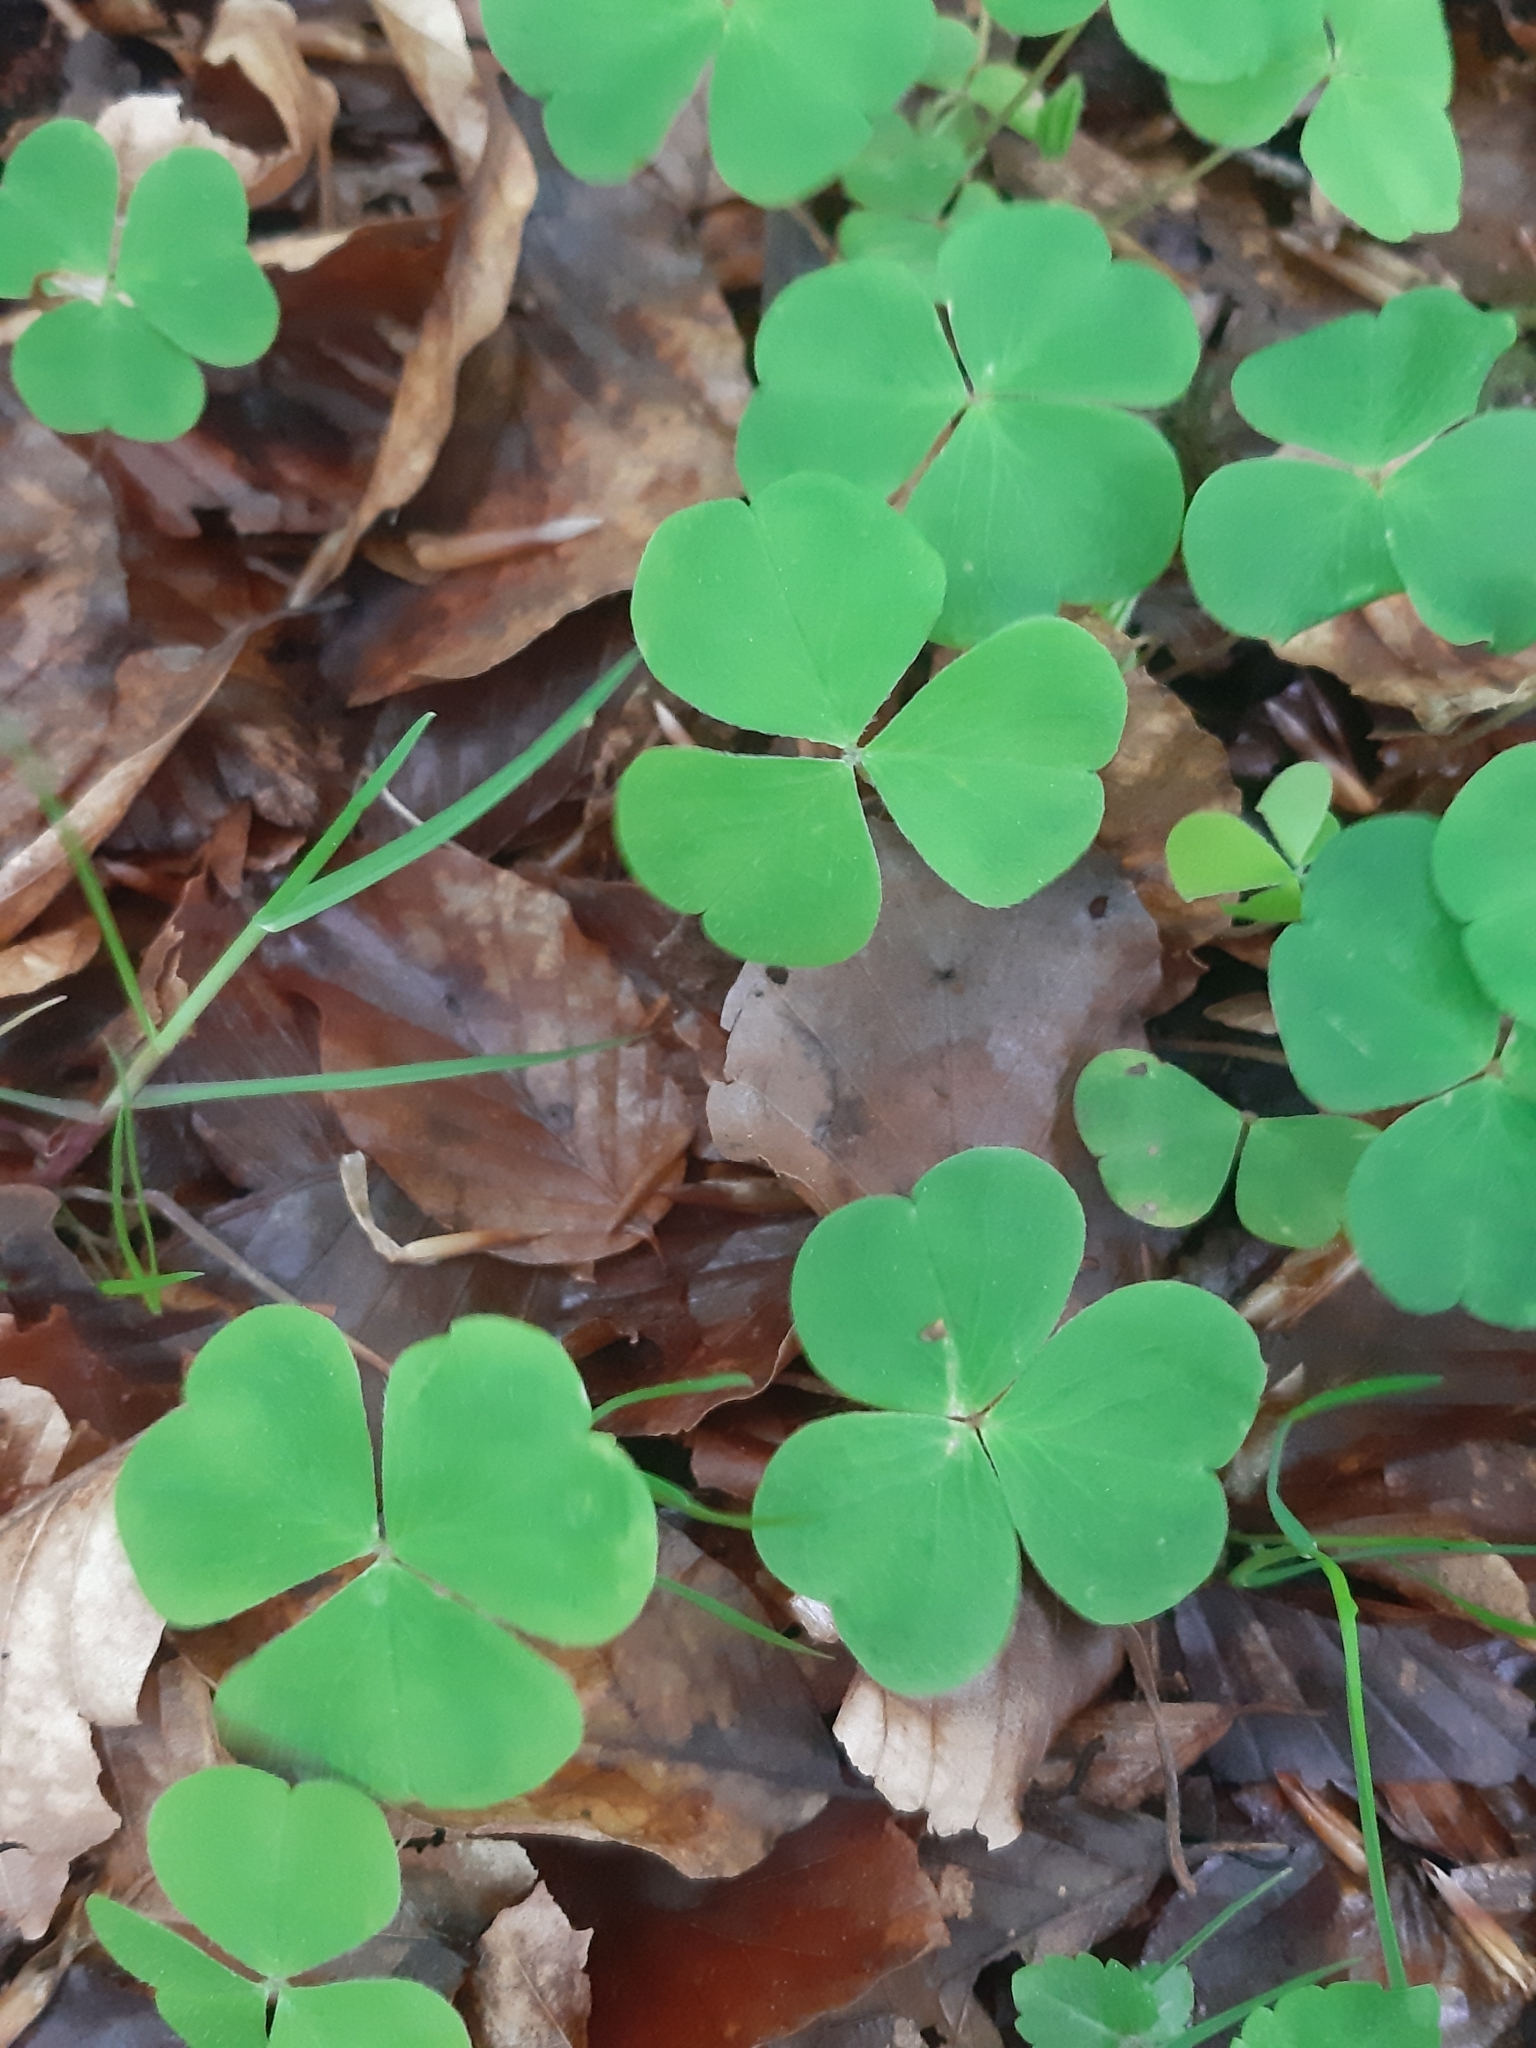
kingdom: Plantae
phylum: Tracheophyta
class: Magnoliopsida
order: Oxalidales
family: Oxalidaceae
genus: Oxalis
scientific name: Oxalis acetosella
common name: Wood-sorrel
